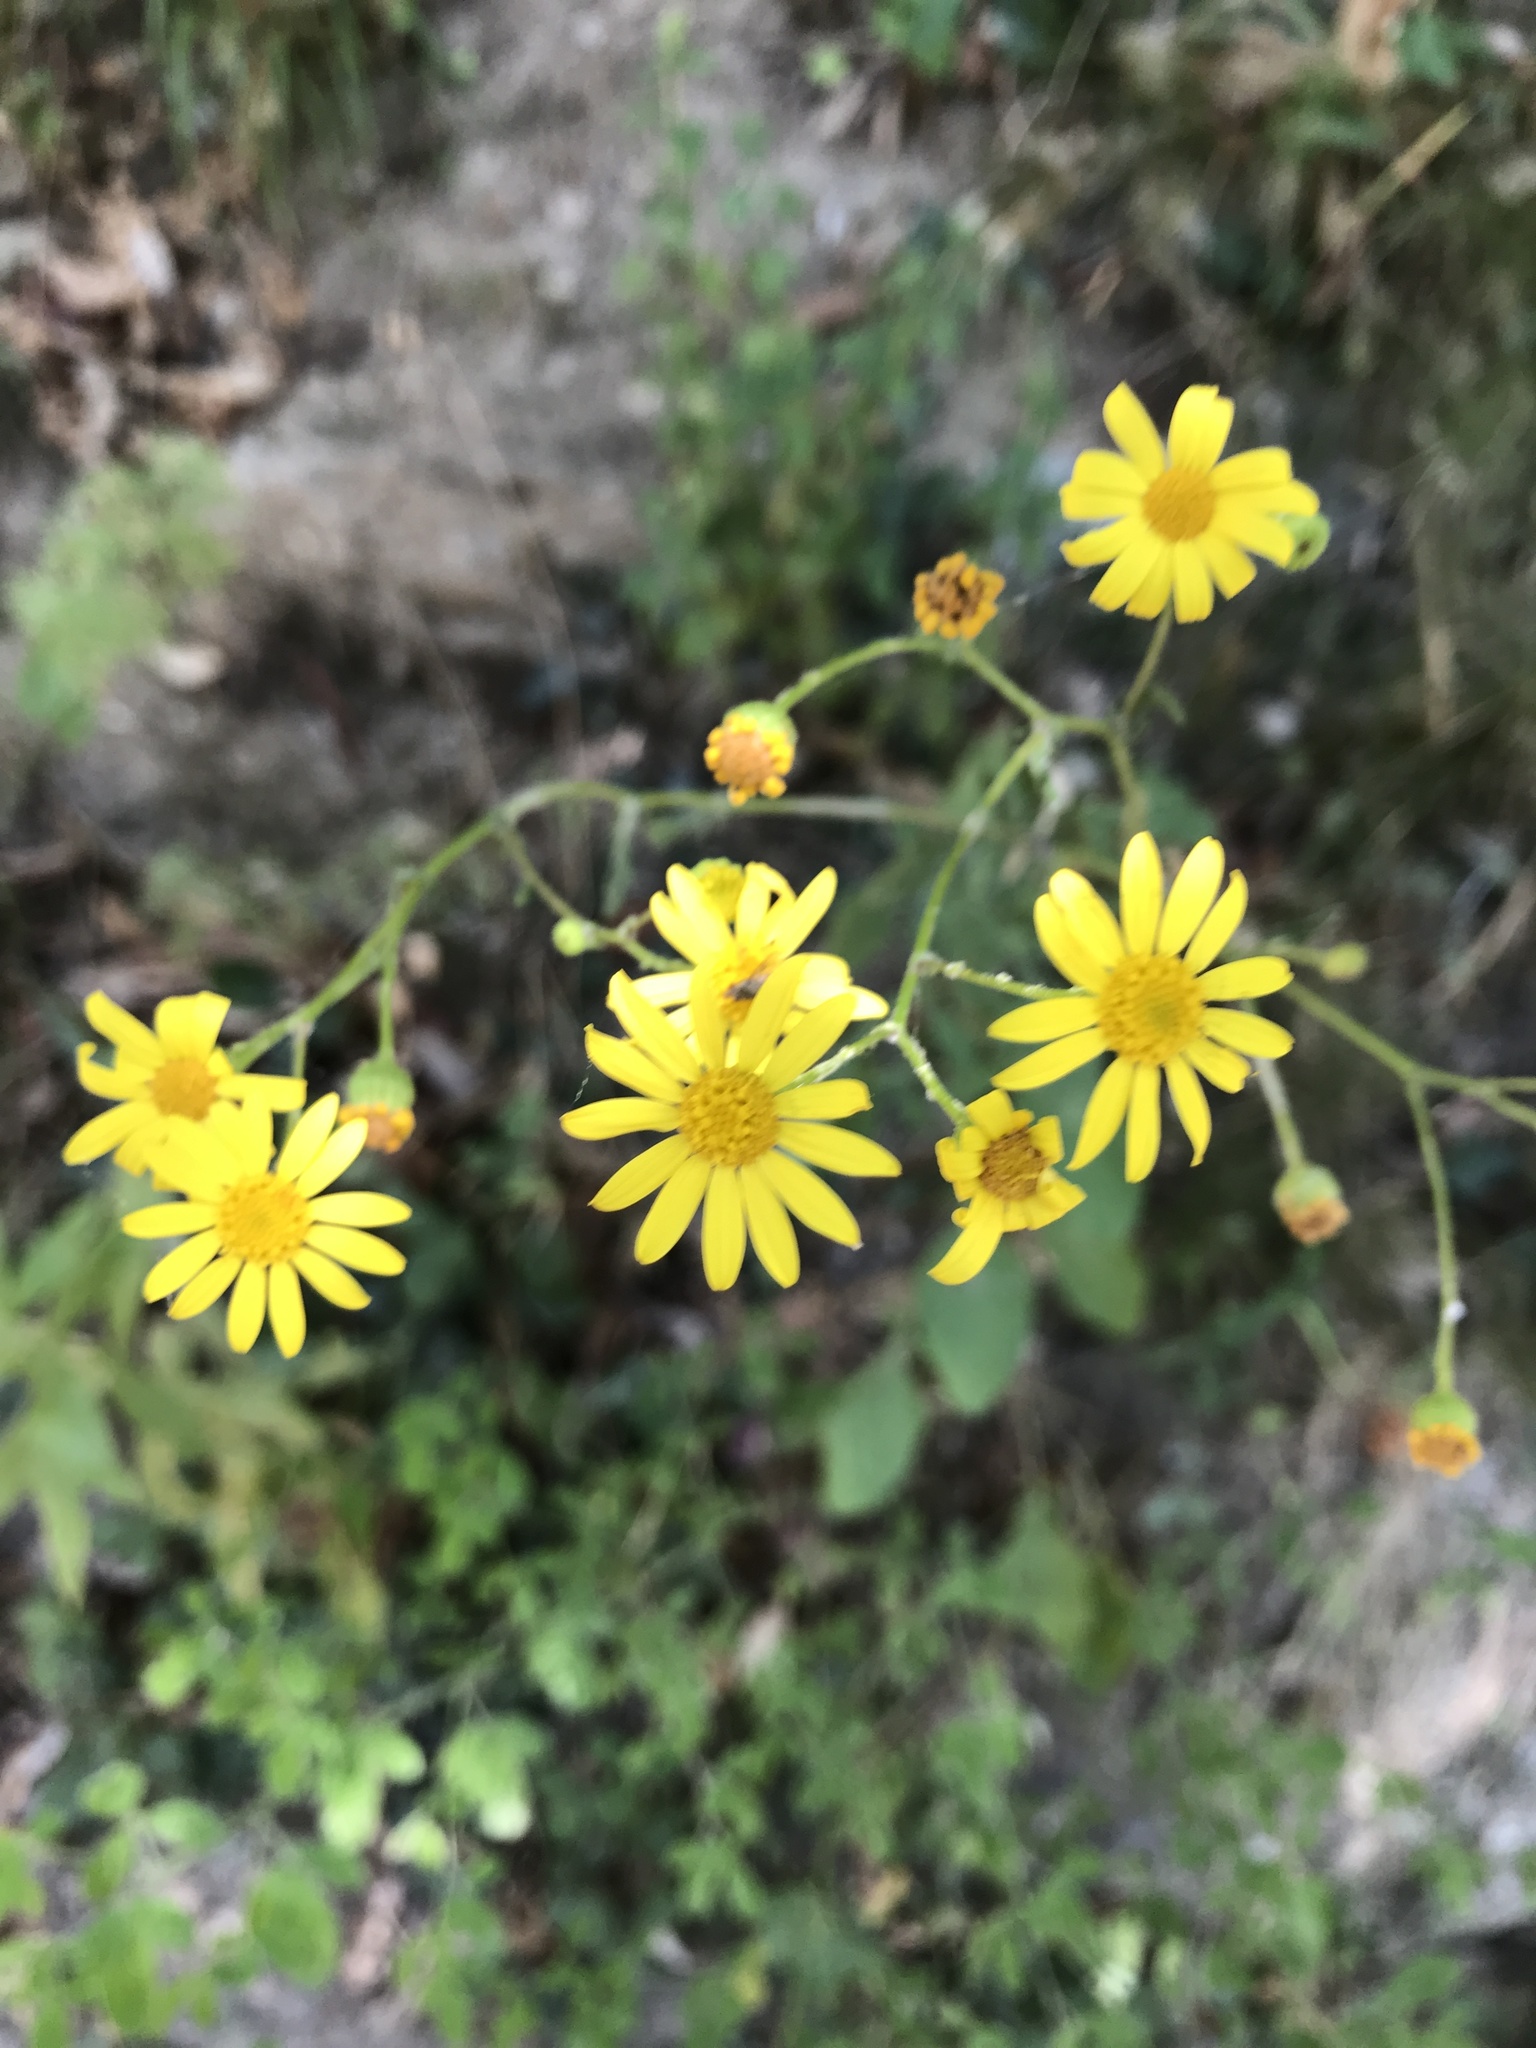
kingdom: Plantae
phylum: Tracheophyta
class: Magnoliopsida
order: Asterales
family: Asteraceae
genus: Senecio
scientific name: Senecio inaequidens
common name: Narrow-leaved ragwort
